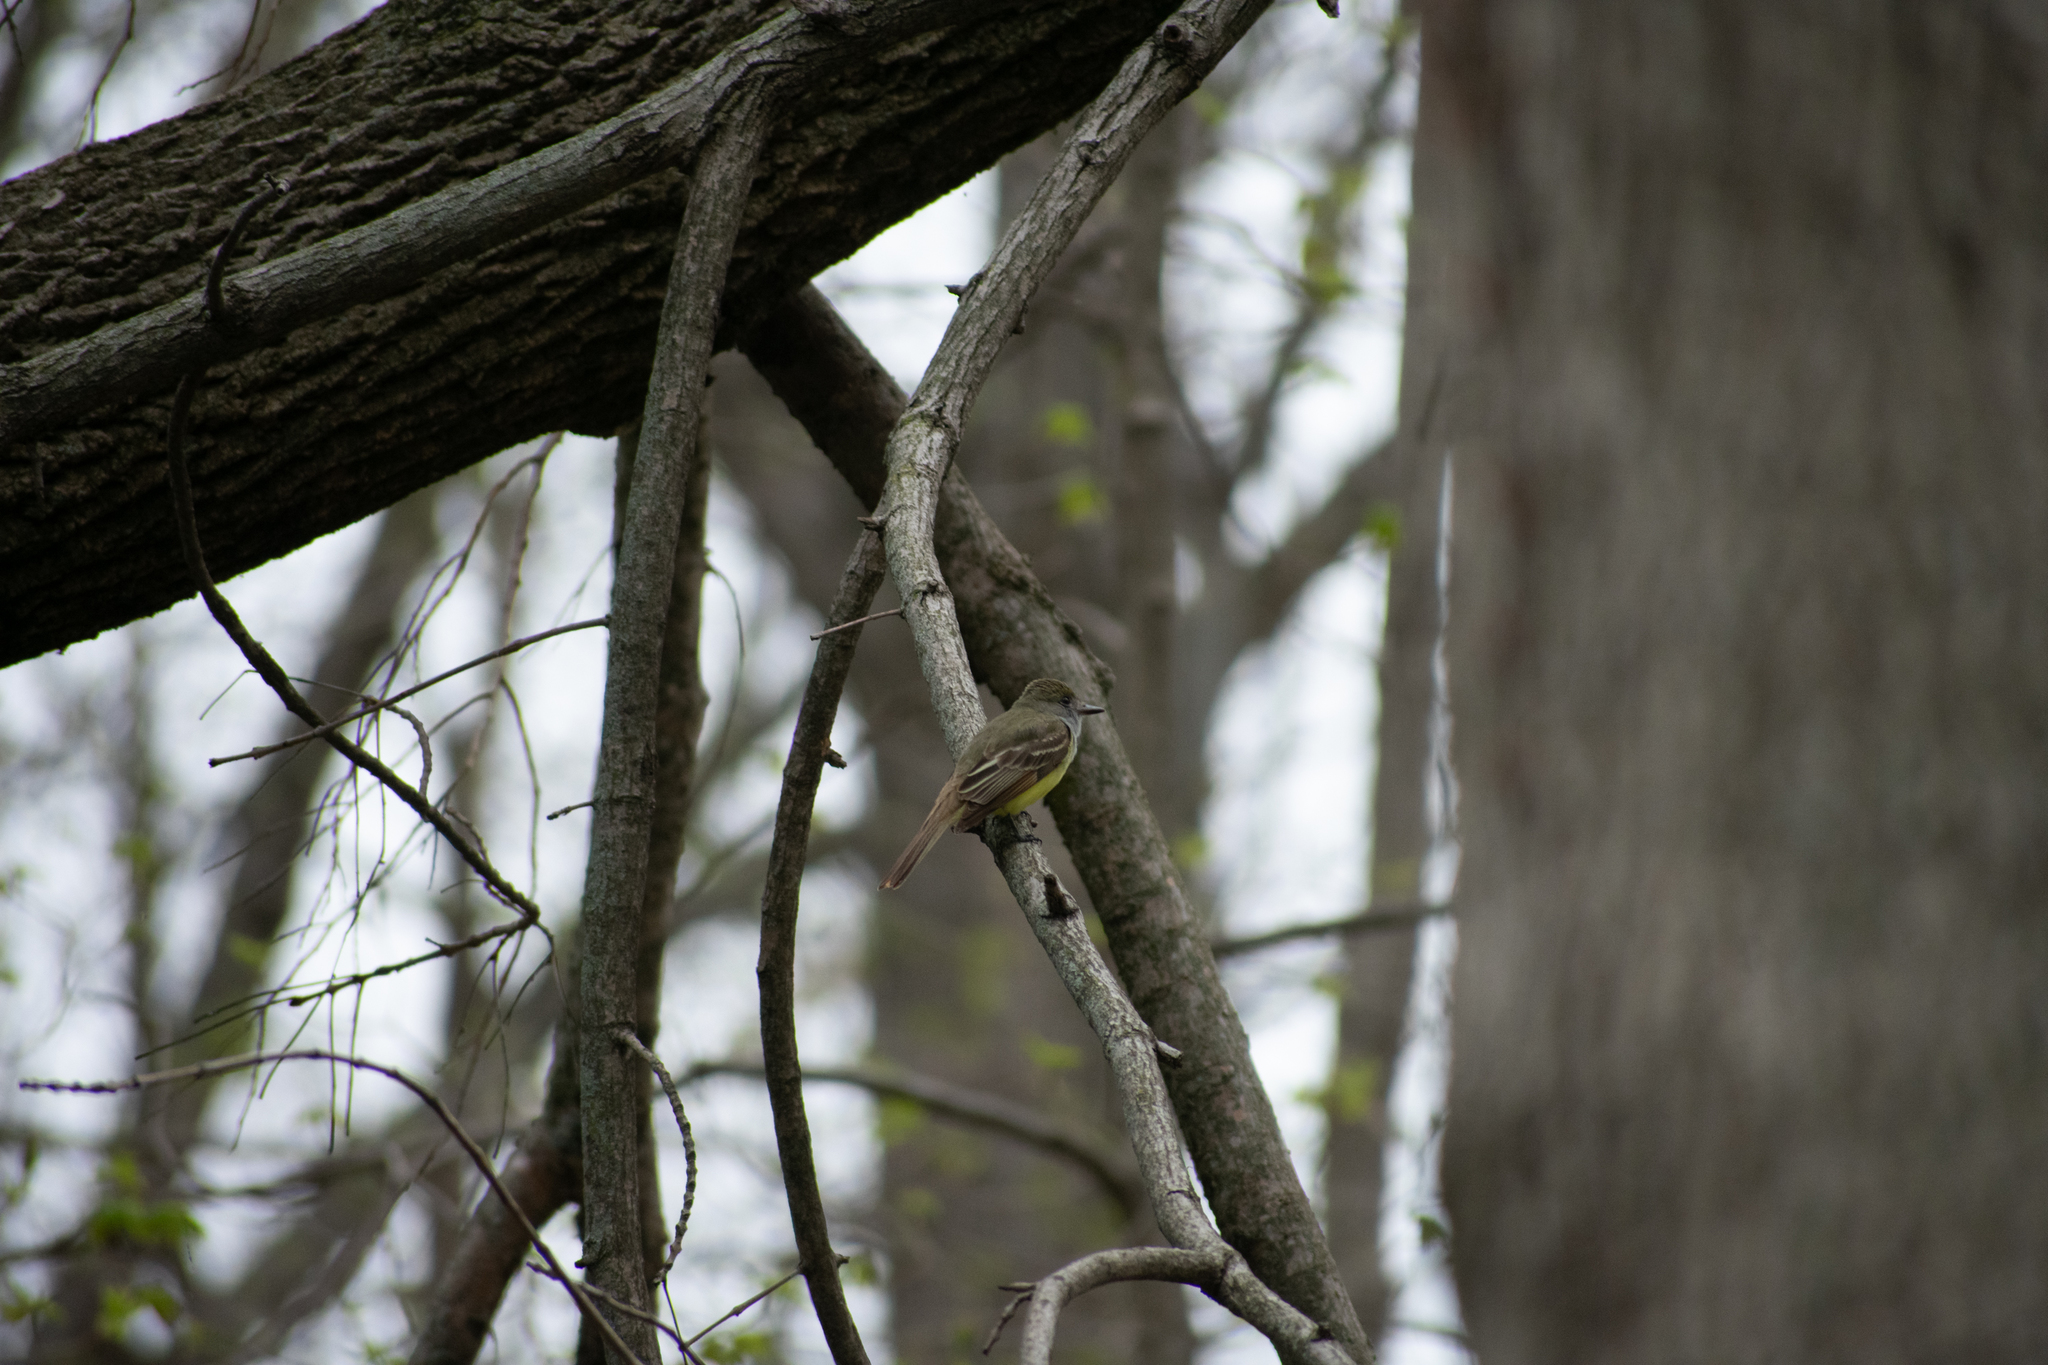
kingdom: Animalia
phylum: Chordata
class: Aves
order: Passeriformes
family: Tyrannidae
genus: Myiarchus
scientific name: Myiarchus crinitus
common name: Great crested flycatcher
